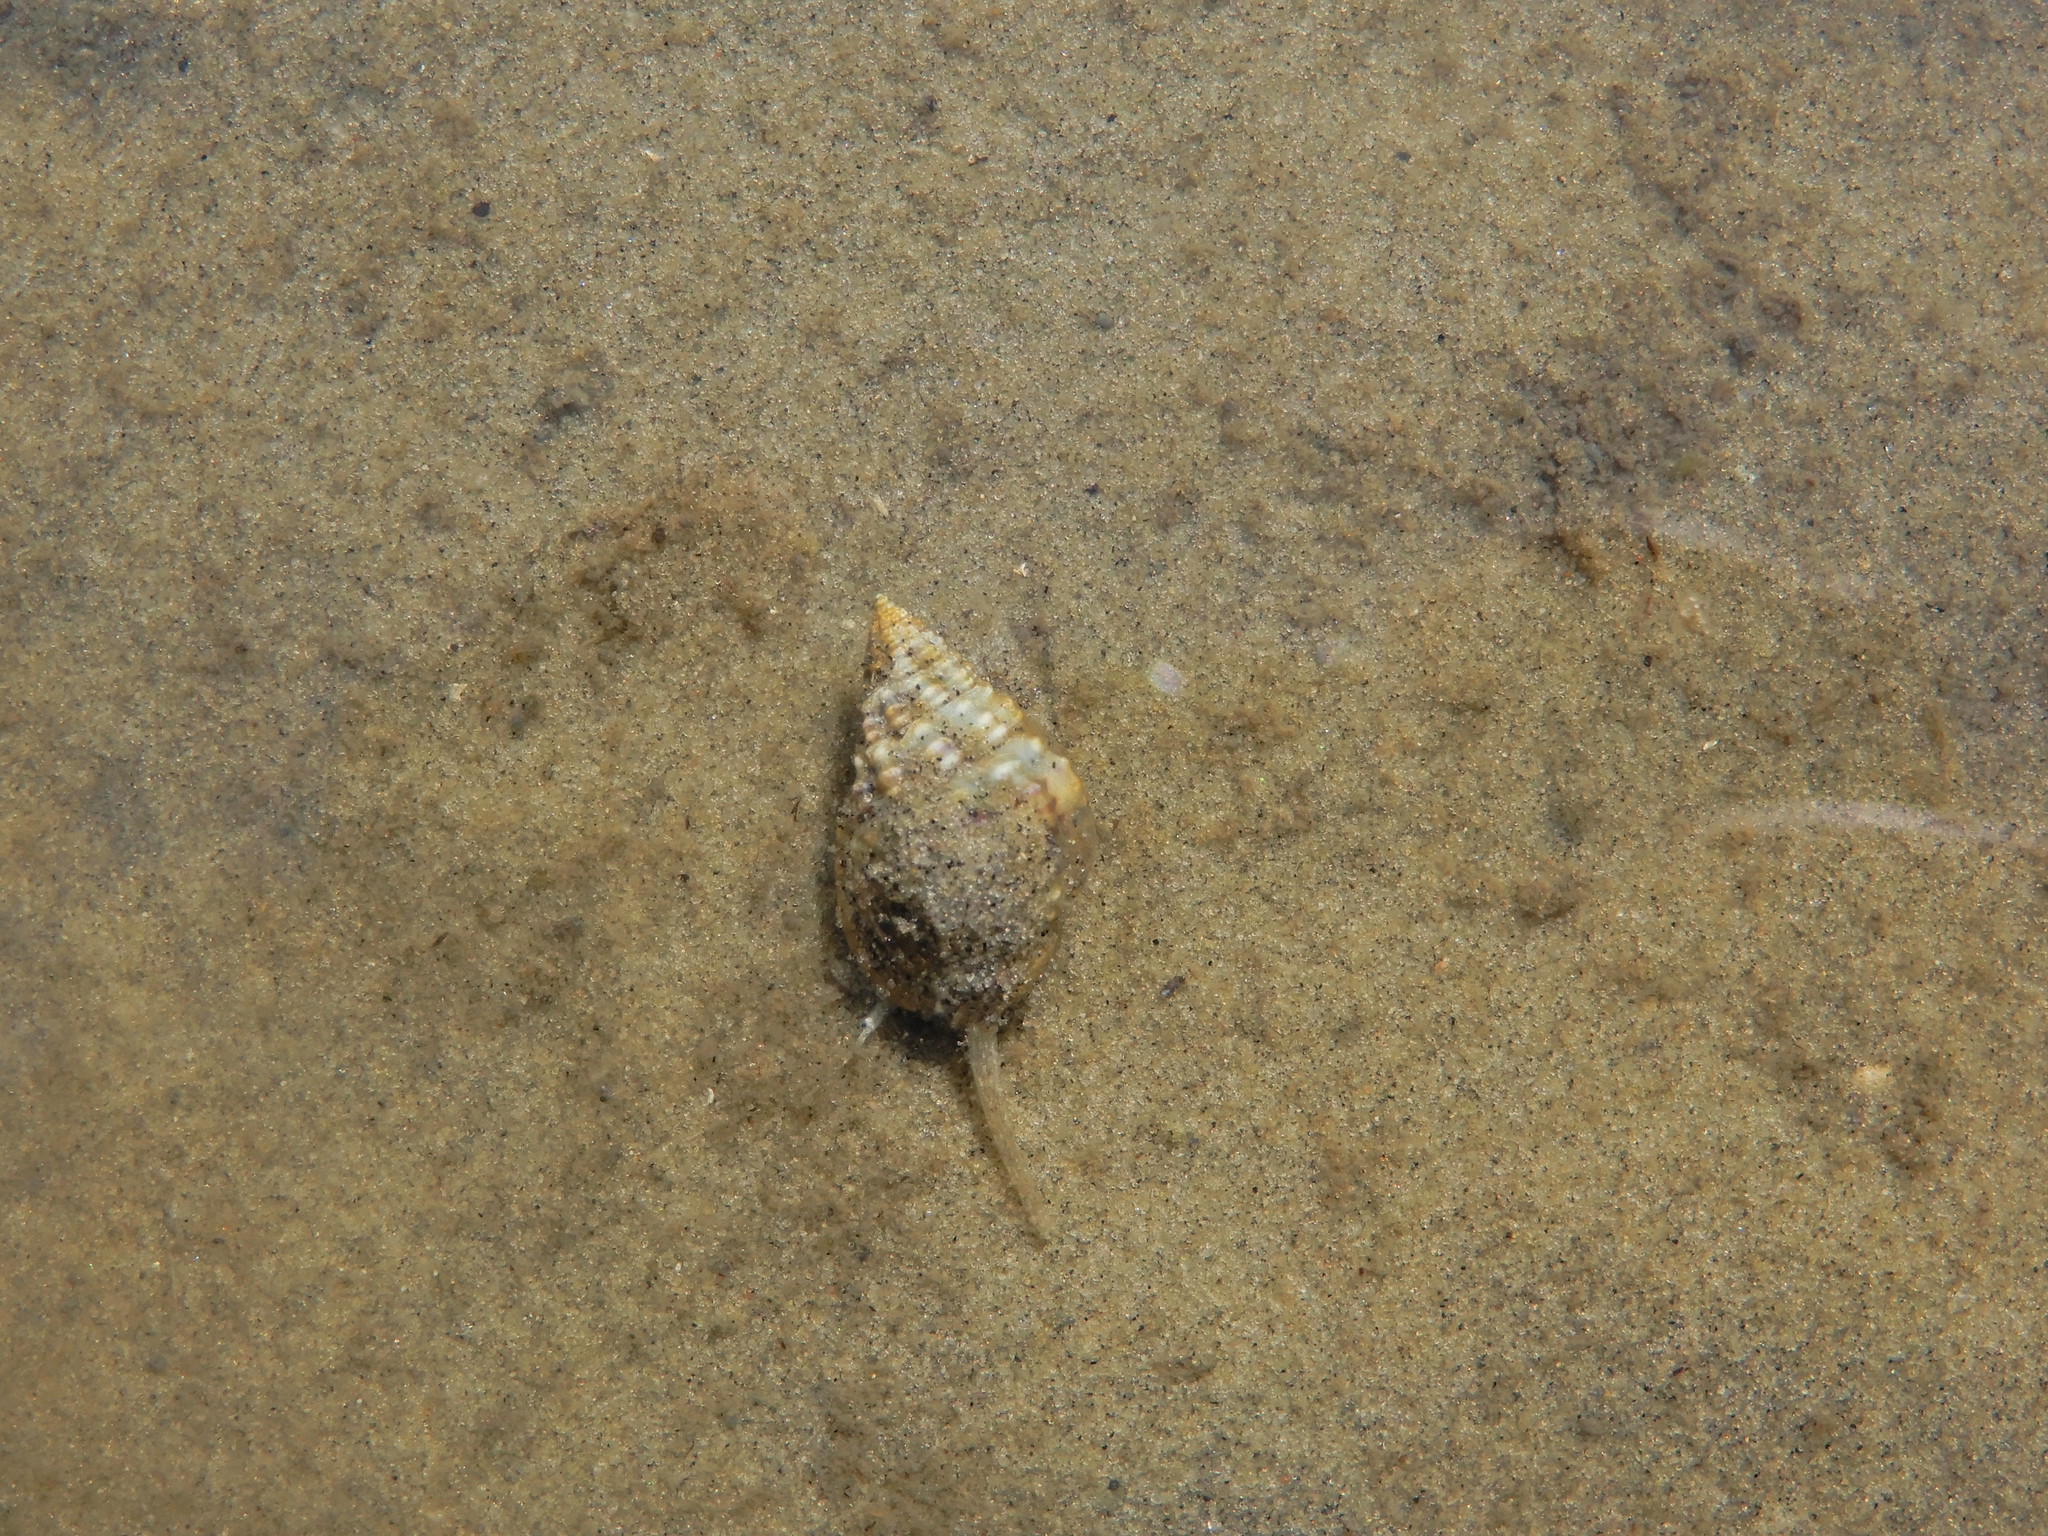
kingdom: Animalia
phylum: Mollusca
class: Gastropoda
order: Neogastropoda
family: Nassariidae
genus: Phrontis
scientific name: Phrontis vibex
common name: Bruised nassa
